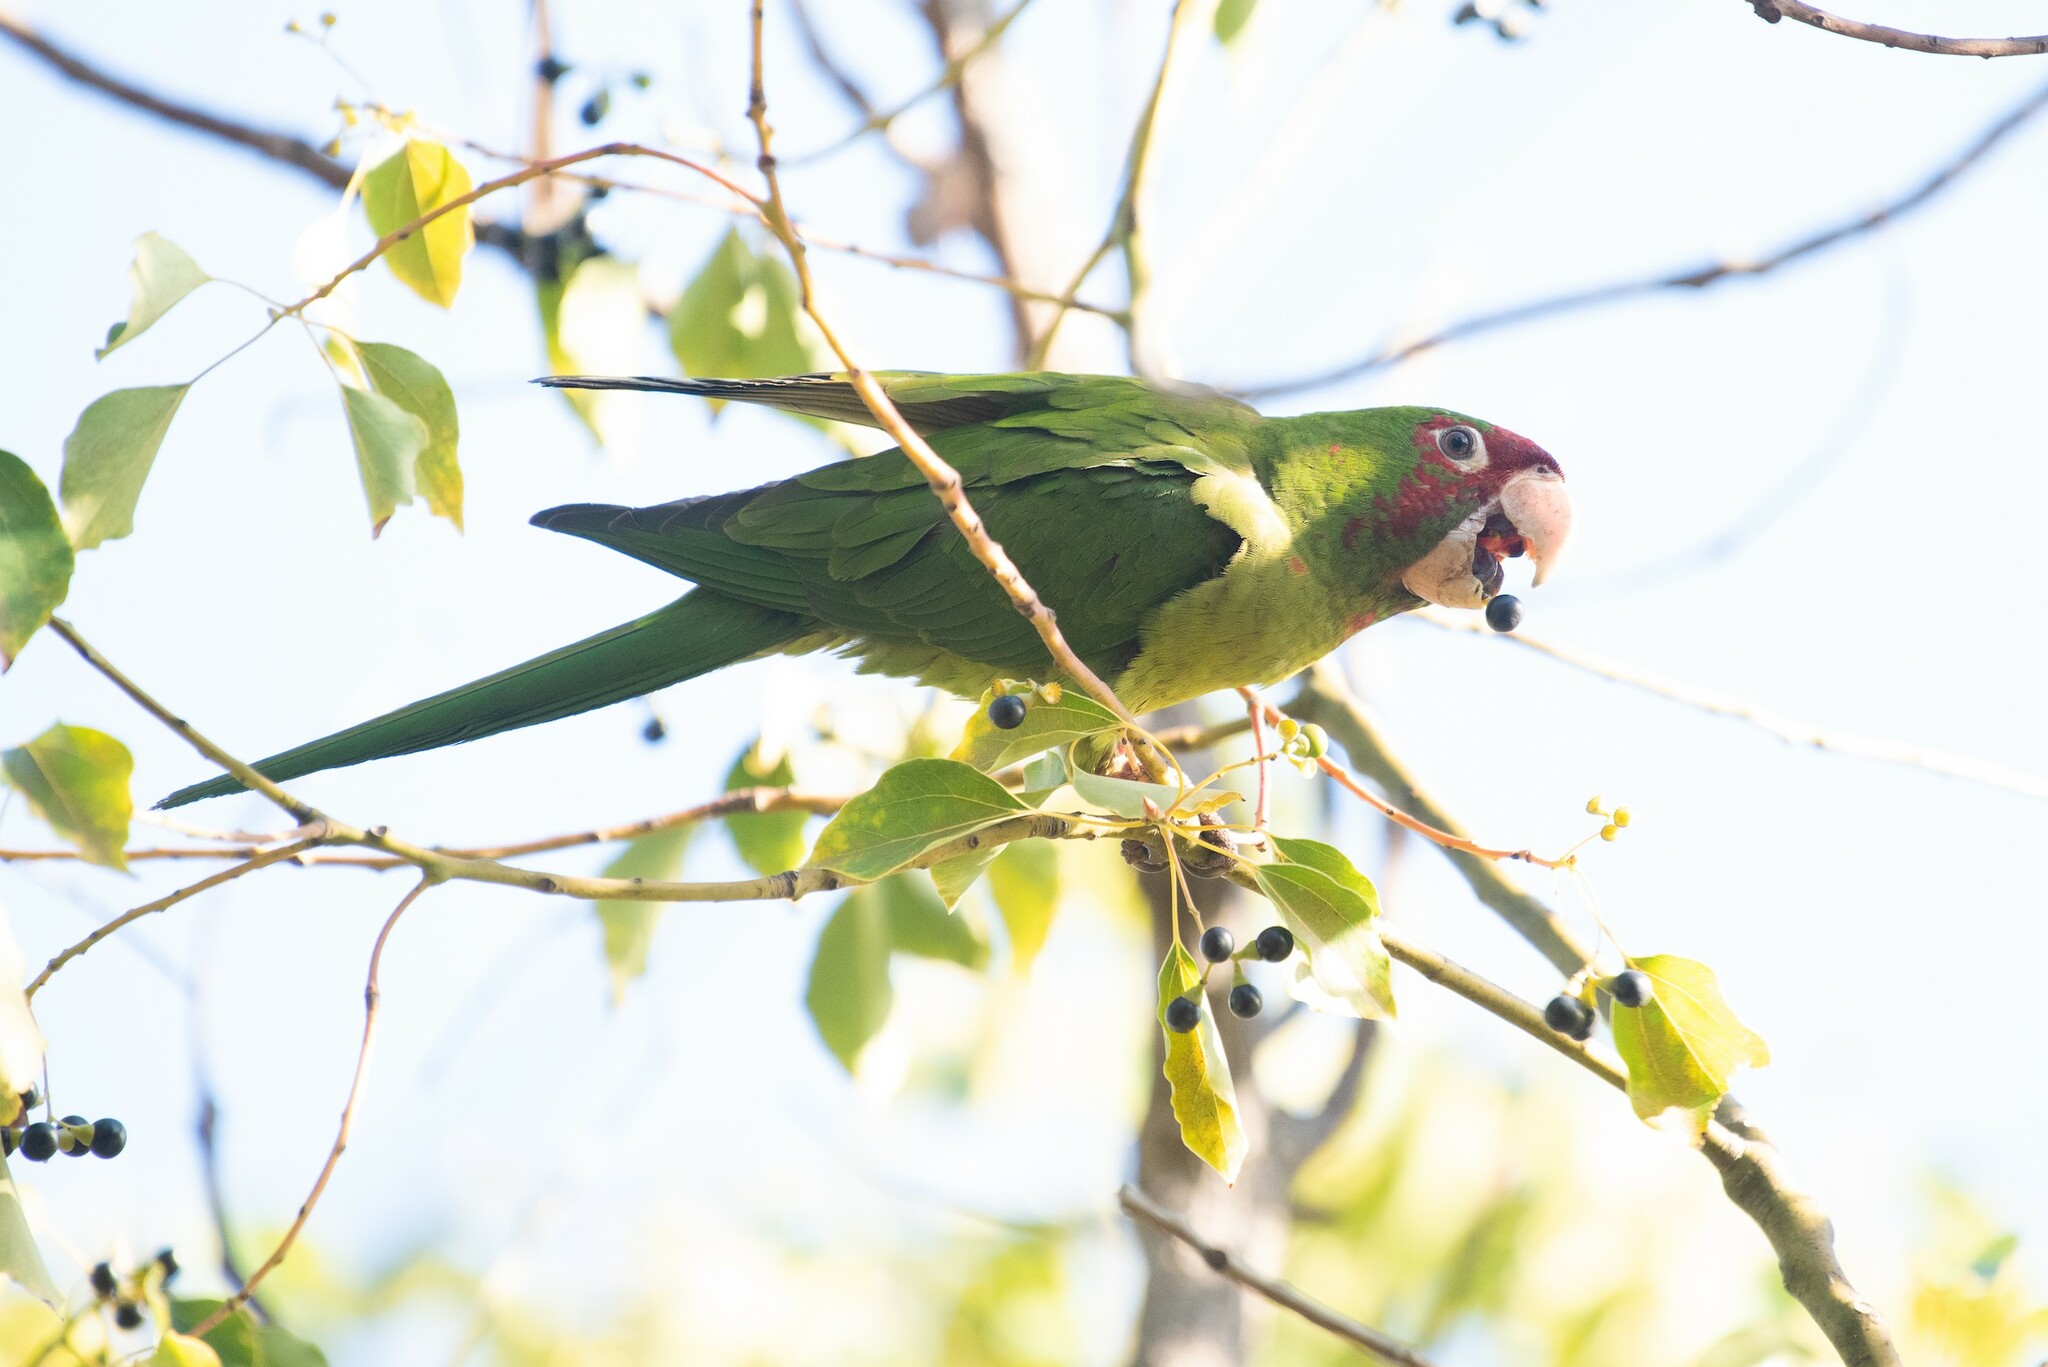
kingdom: Animalia
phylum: Chordata
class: Aves
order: Psittaciformes
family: Psittacidae
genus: Aratinga
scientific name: Aratinga mitrata
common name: Mitred parakeet
